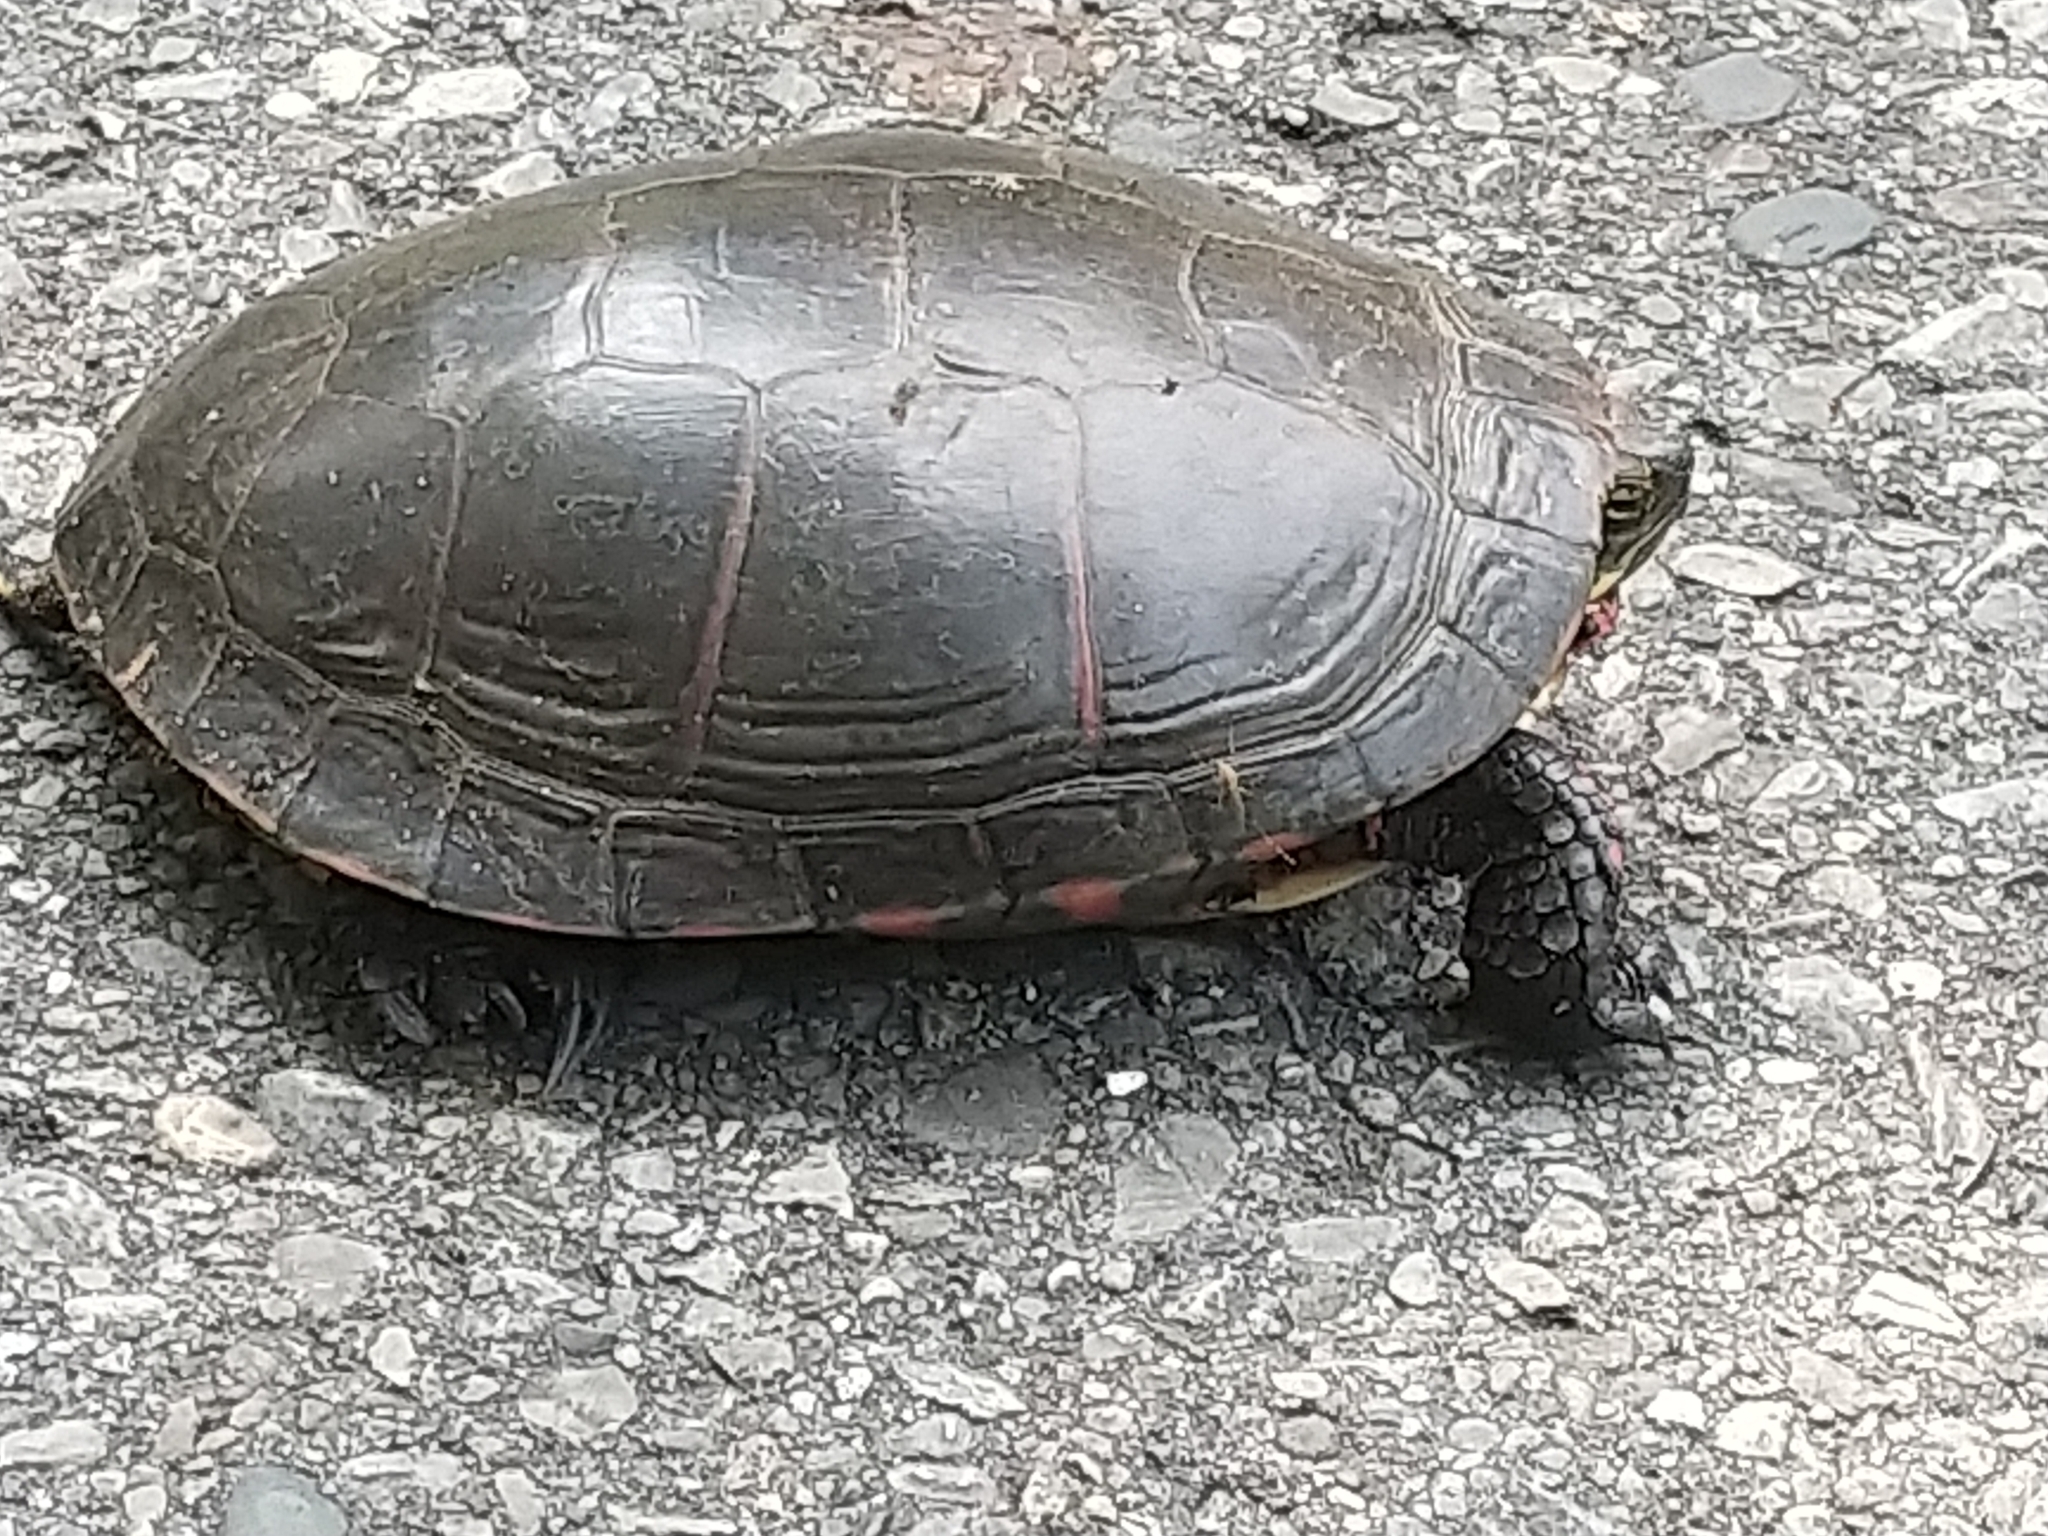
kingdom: Animalia
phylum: Chordata
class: Testudines
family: Emydidae
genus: Chrysemys
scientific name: Chrysemys picta
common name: Painted turtle
